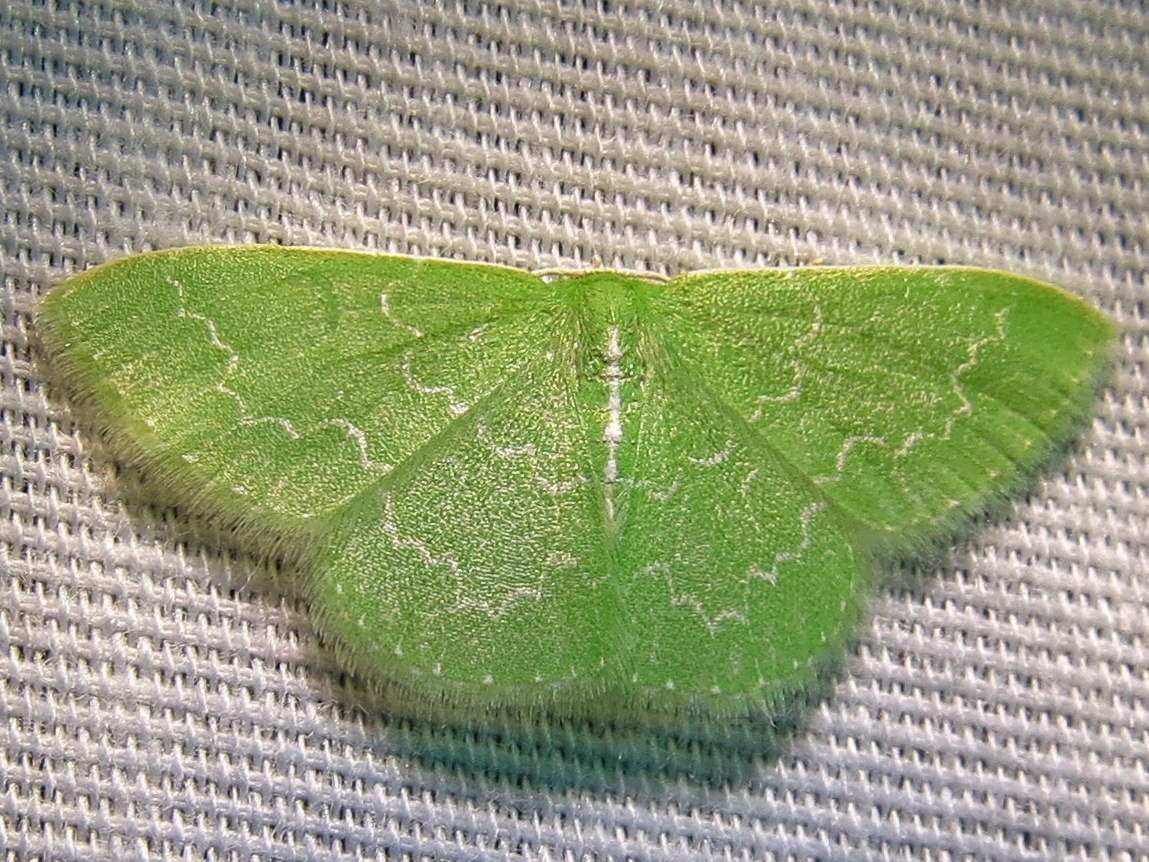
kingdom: Animalia
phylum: Arthropoda
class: Insecta
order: Lepidoptera
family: Geometridae
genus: Synchlora
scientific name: Synchlora frondaria
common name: Southern emerald
